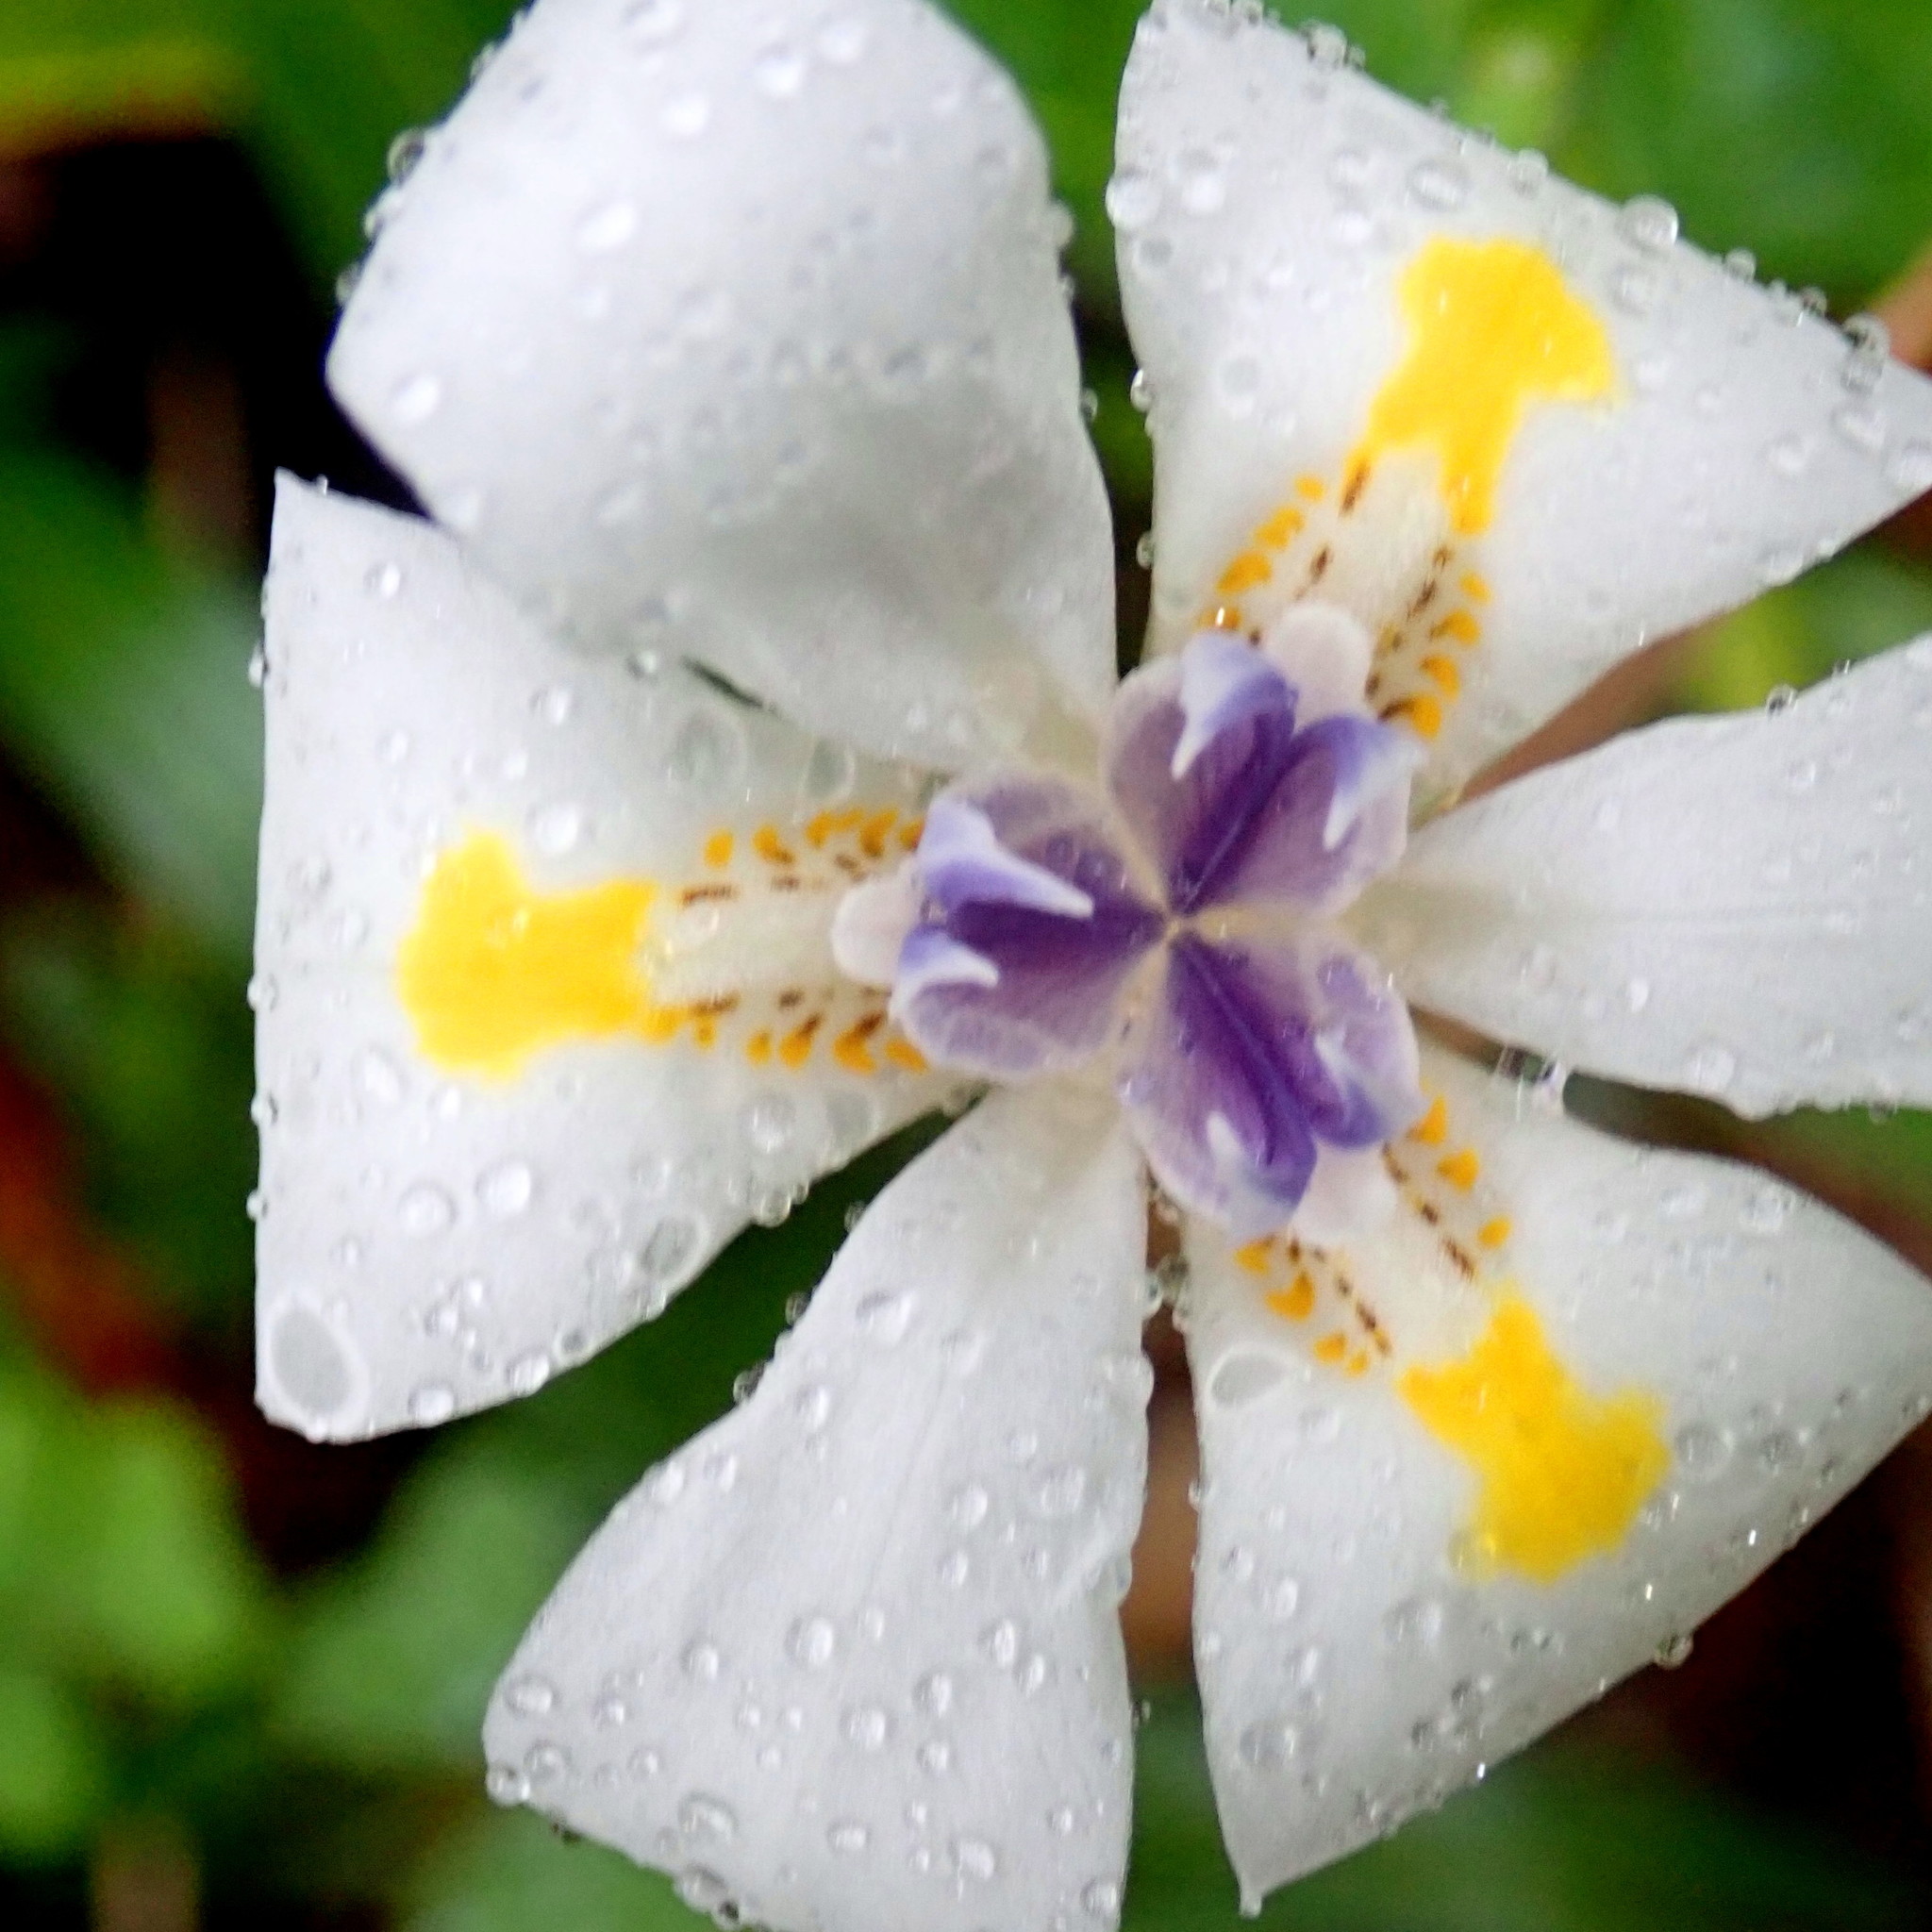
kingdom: Plantae
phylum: Tracheophyta
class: Liliopsida
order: Asparagales
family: Iridaceae
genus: Dietes
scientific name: Dietes iridioides
